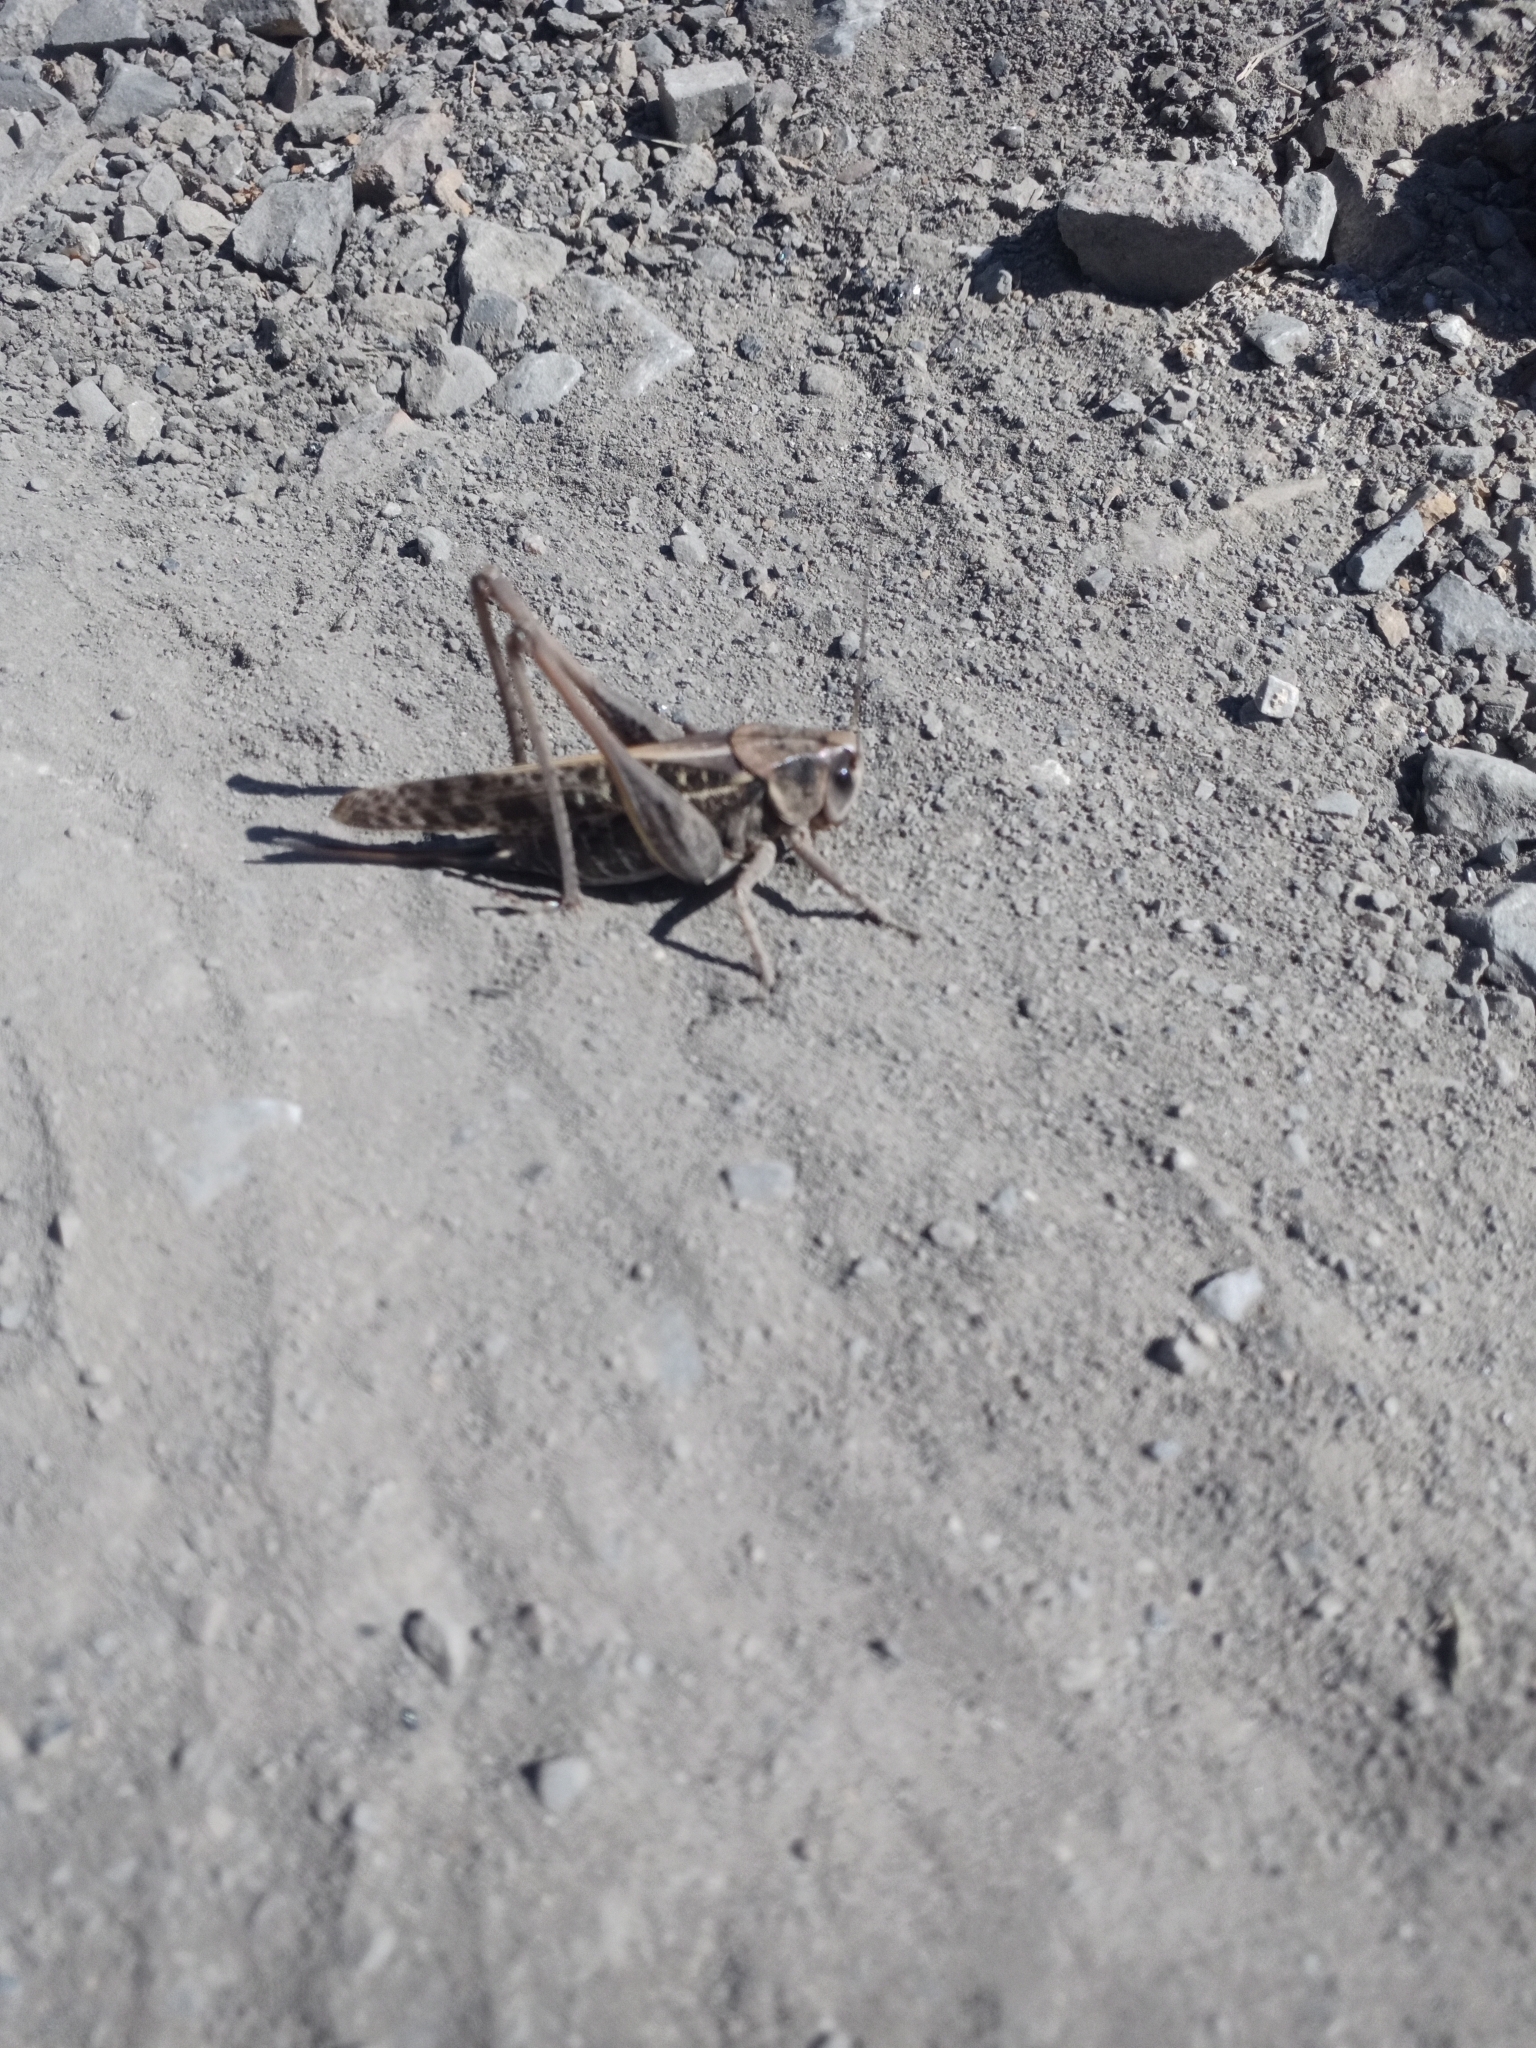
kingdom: Animalia
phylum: Arthropoda
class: Insecta
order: Orthoptera
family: Tettigoniidae
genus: Decticus
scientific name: Decticus verrucivorus
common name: Wart-biter
